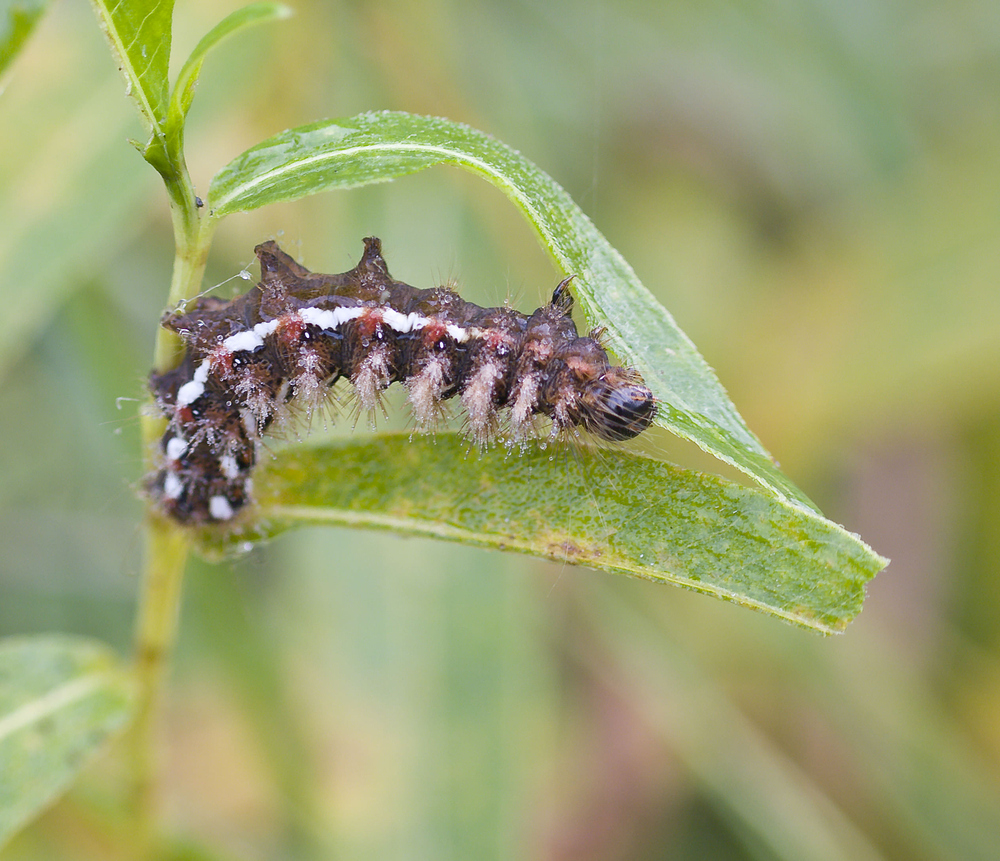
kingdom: Animalia
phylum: Arthropoda
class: Insecta
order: Lepidoptera
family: Noctuidae
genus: Acronicta
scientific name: Acronicta rumicis
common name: Knot grass
